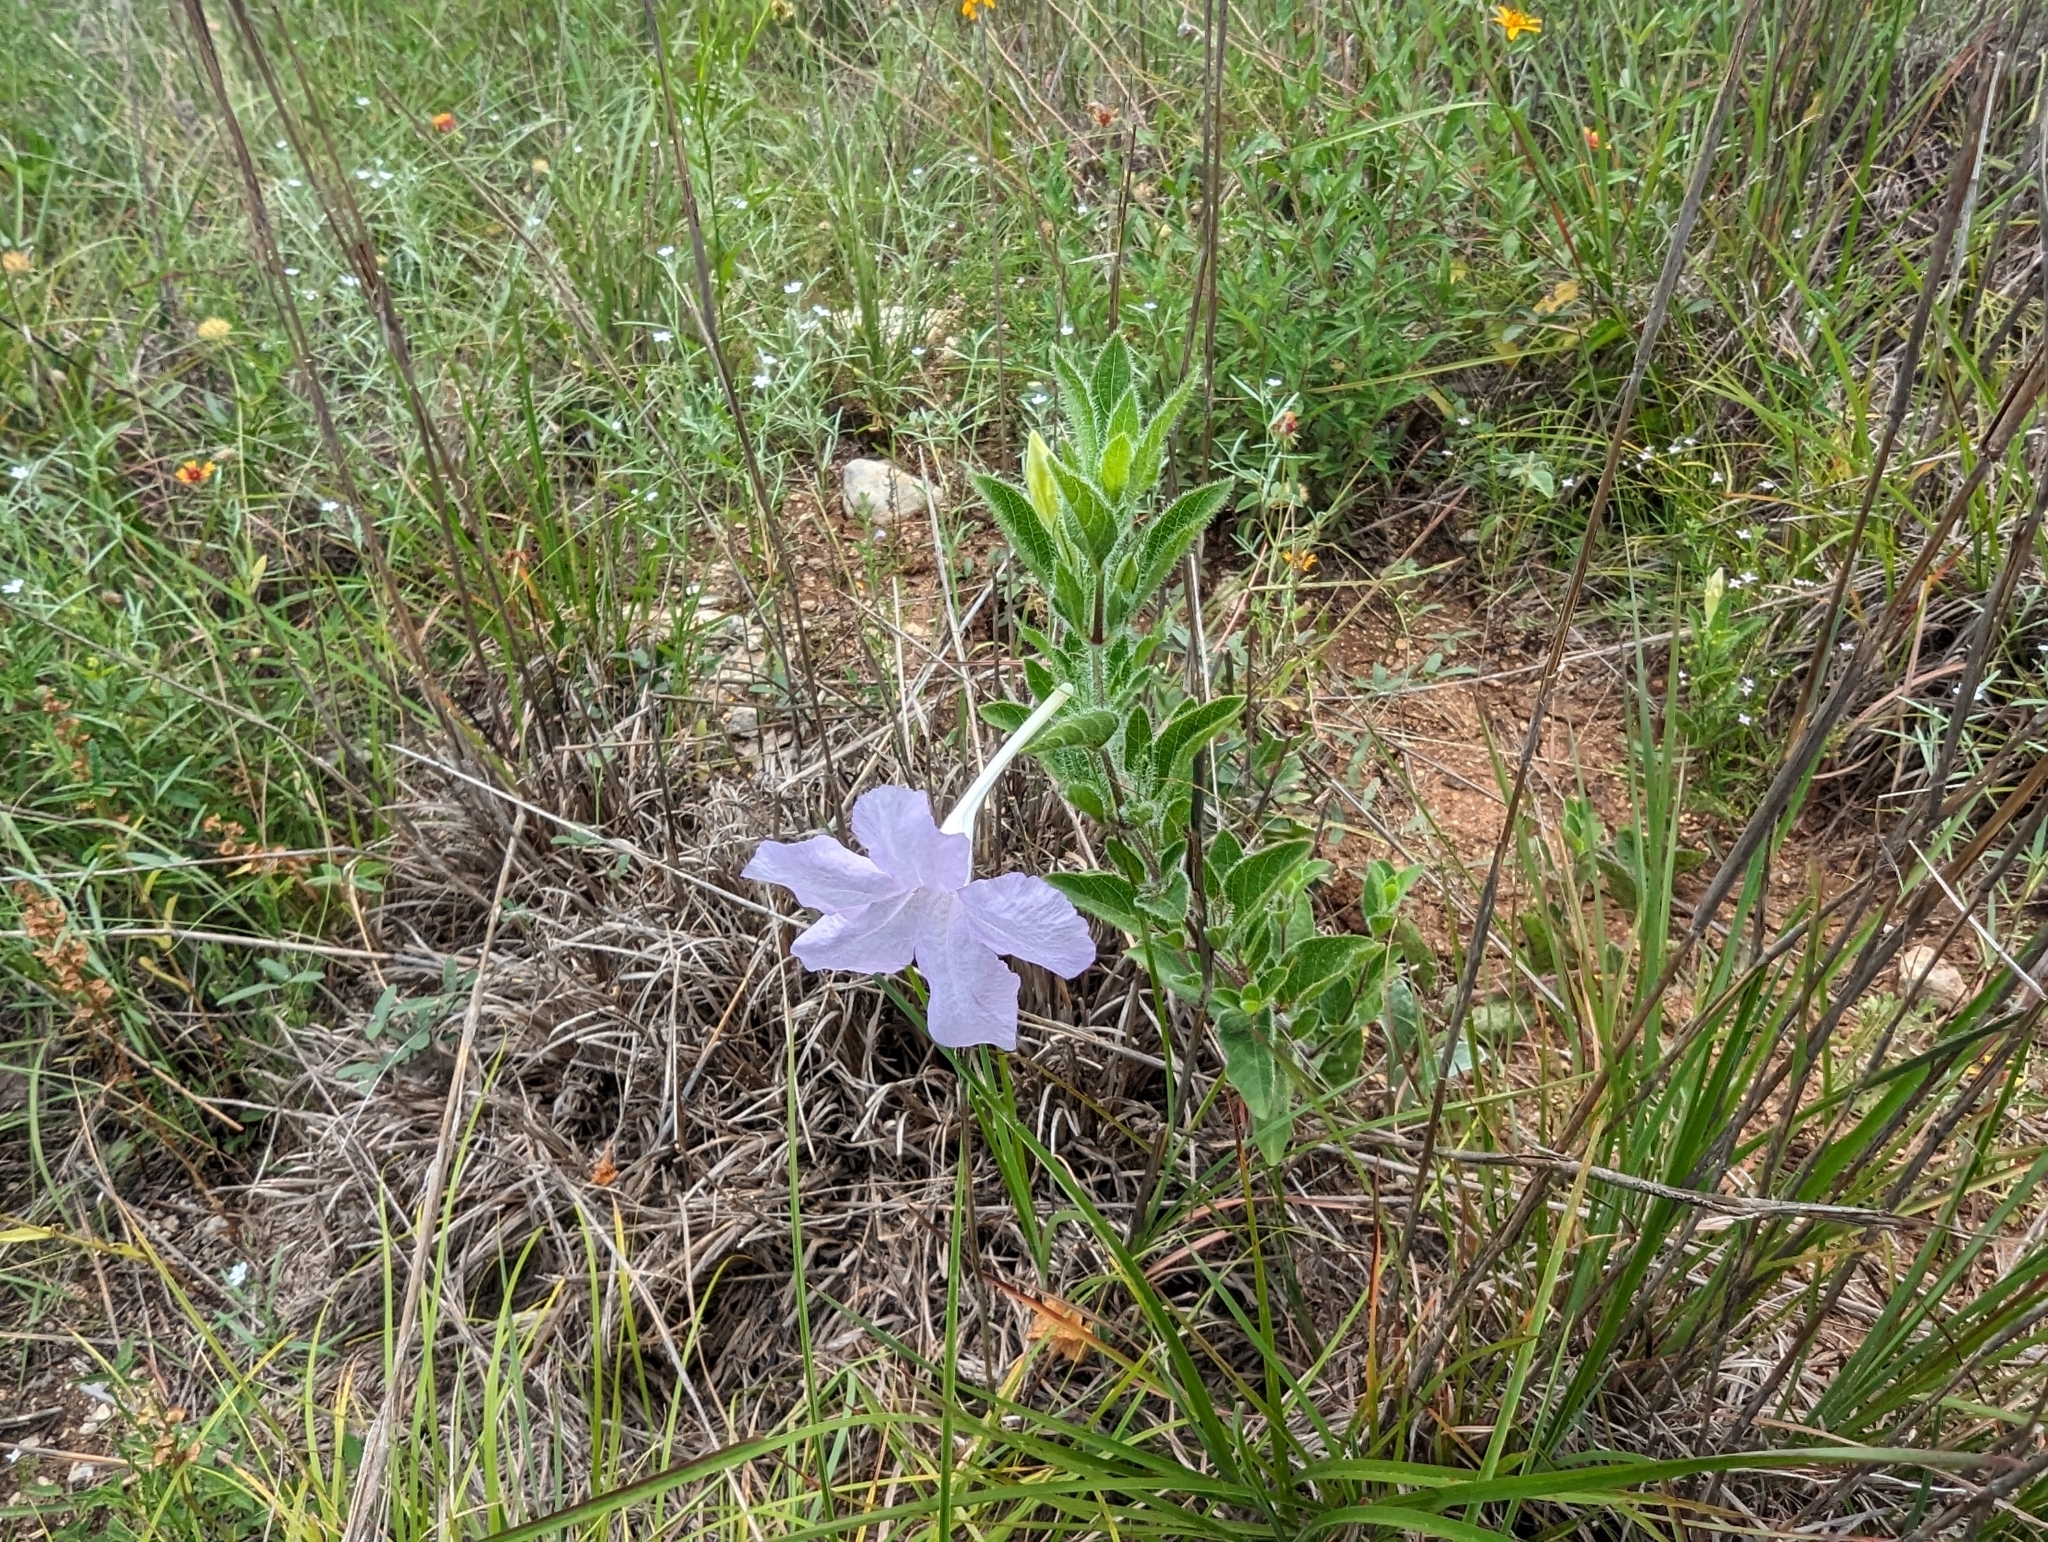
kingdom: Plantae
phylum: Tracheophyta
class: Magnoliopsida
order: Lamiales
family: Acanthaceae
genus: Ruellia
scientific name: Ruellia humilis
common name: Fringe-leaf ruellia
